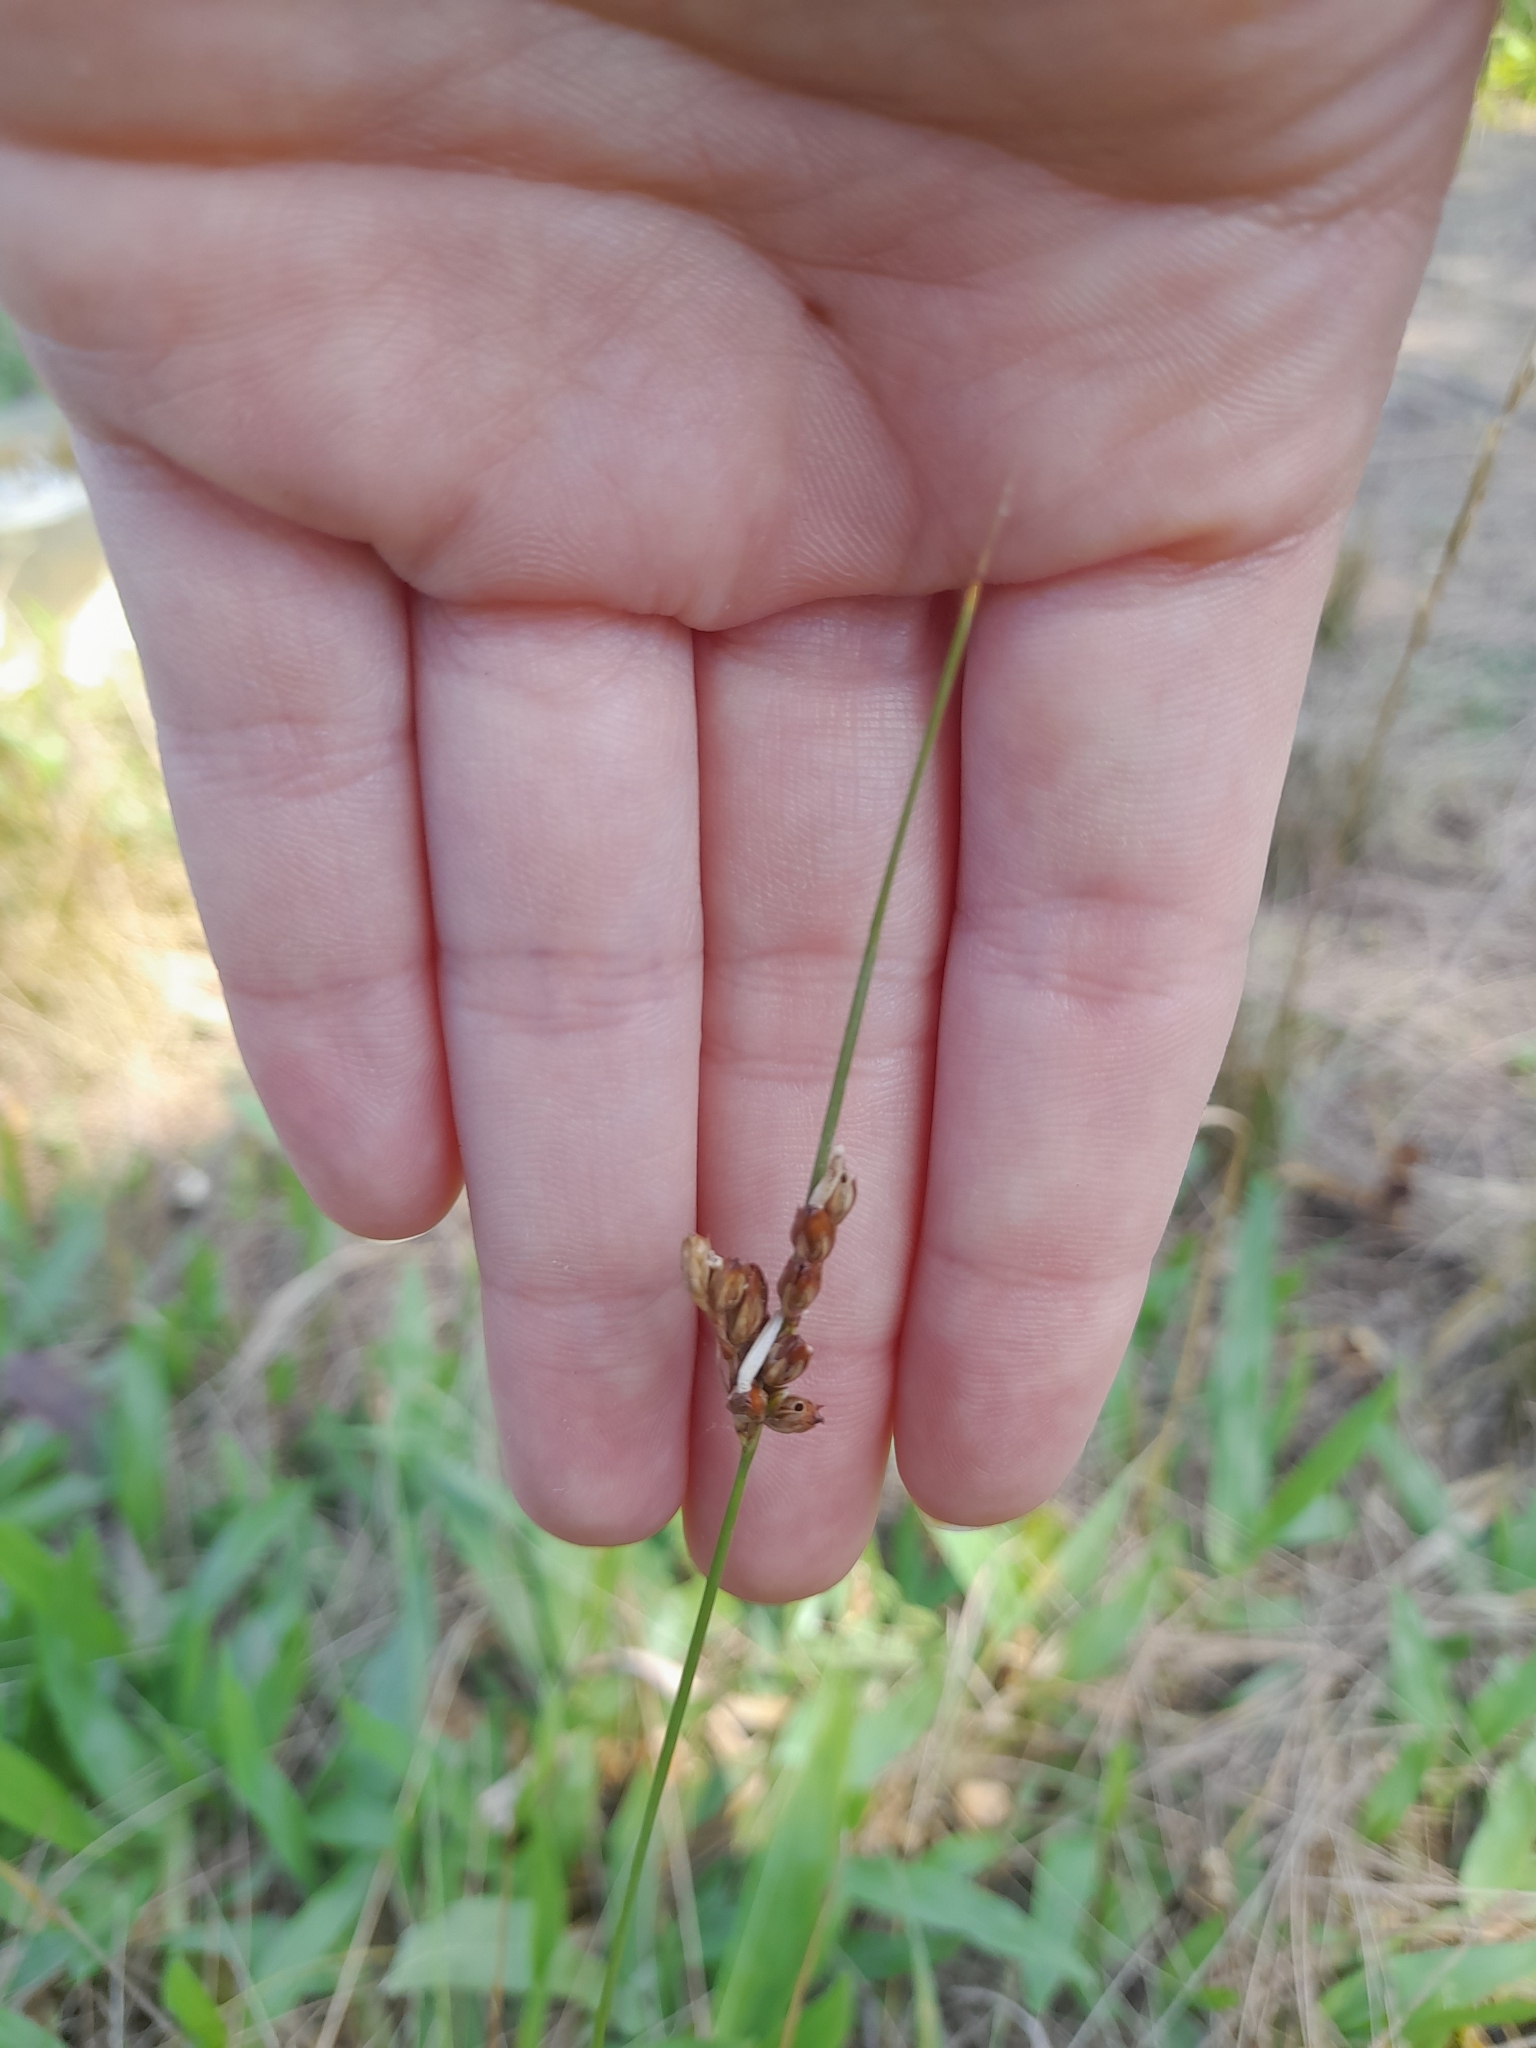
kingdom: Plantae
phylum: Tracheophyta
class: Liliopsida
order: Poales
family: Juncaceae
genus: Juncus
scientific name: Juncus imbricatus
